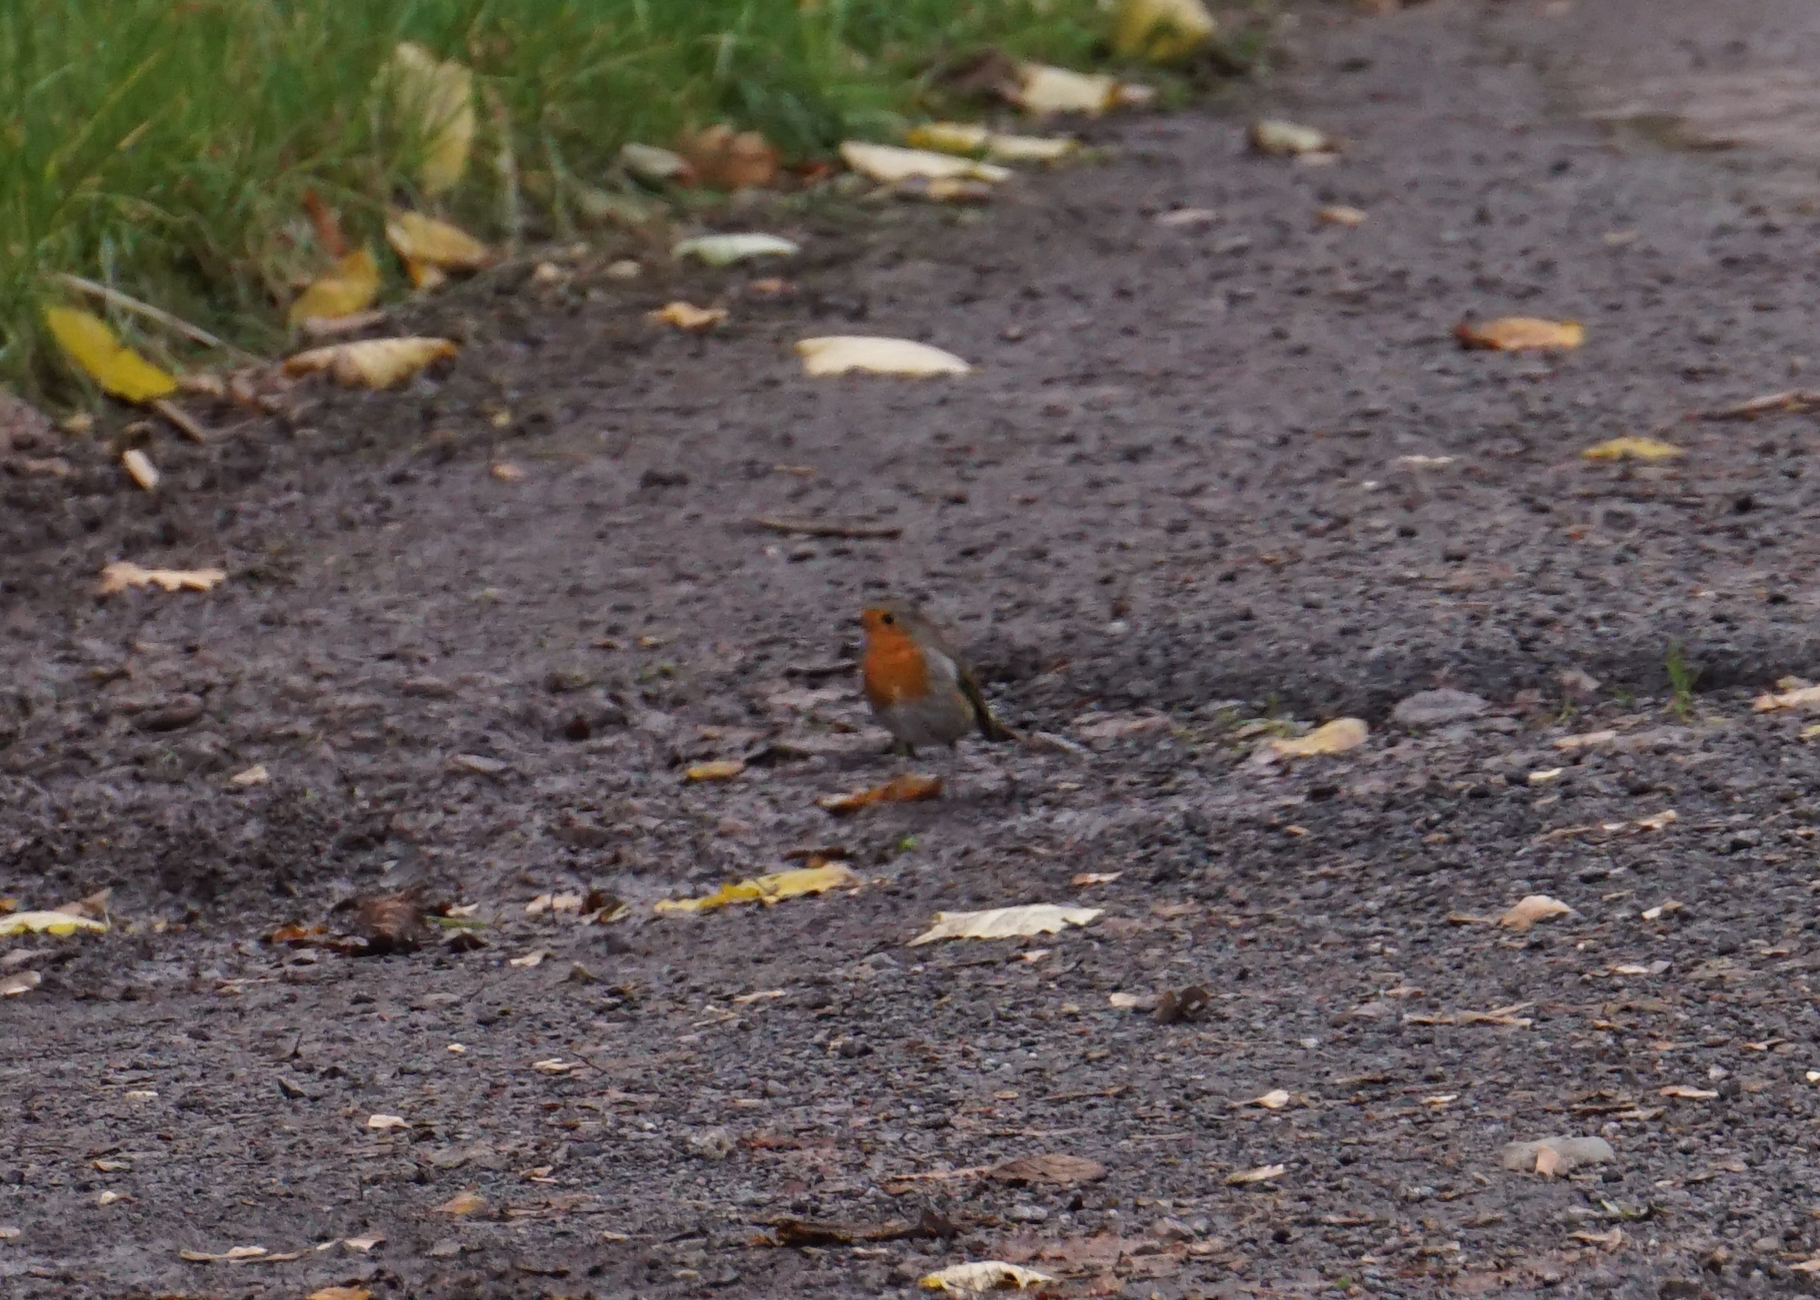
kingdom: Animalia
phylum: Chordata
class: Aves
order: Passeriformes
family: Muscicapidae
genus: Erithacus
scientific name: Erithacus rubecula
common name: European robin
